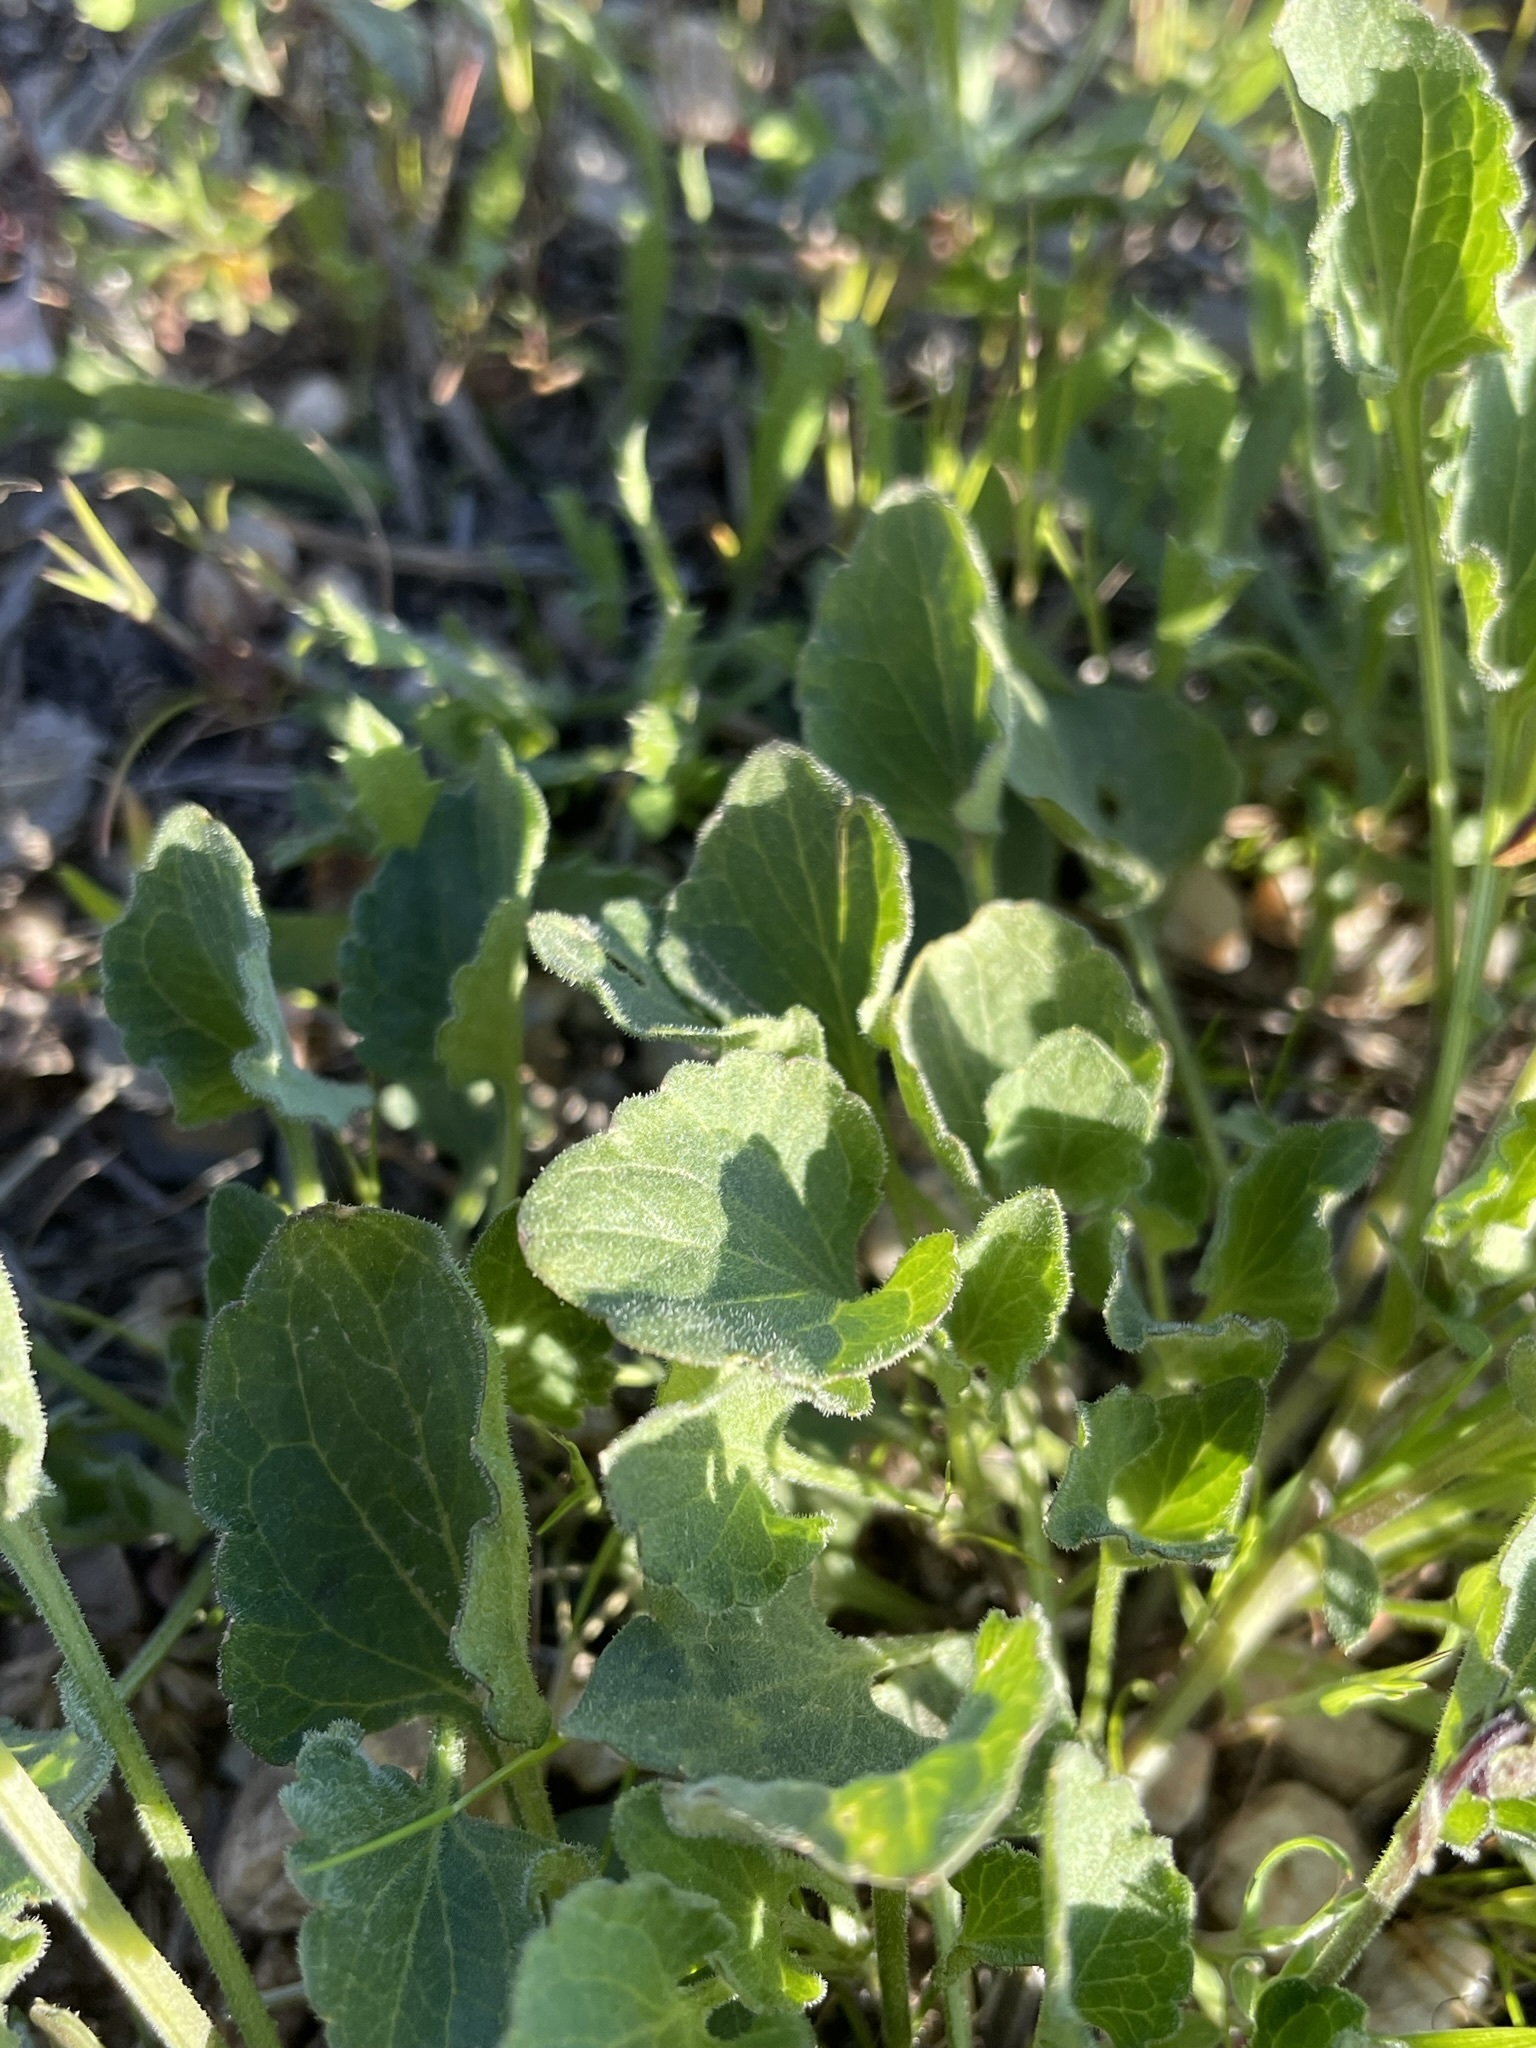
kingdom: Plantae
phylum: Tracheophyta
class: Magnoliopsida
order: Malpighiales
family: Violaceae
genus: Viola
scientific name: Viola pedunculata
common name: California golden violet
